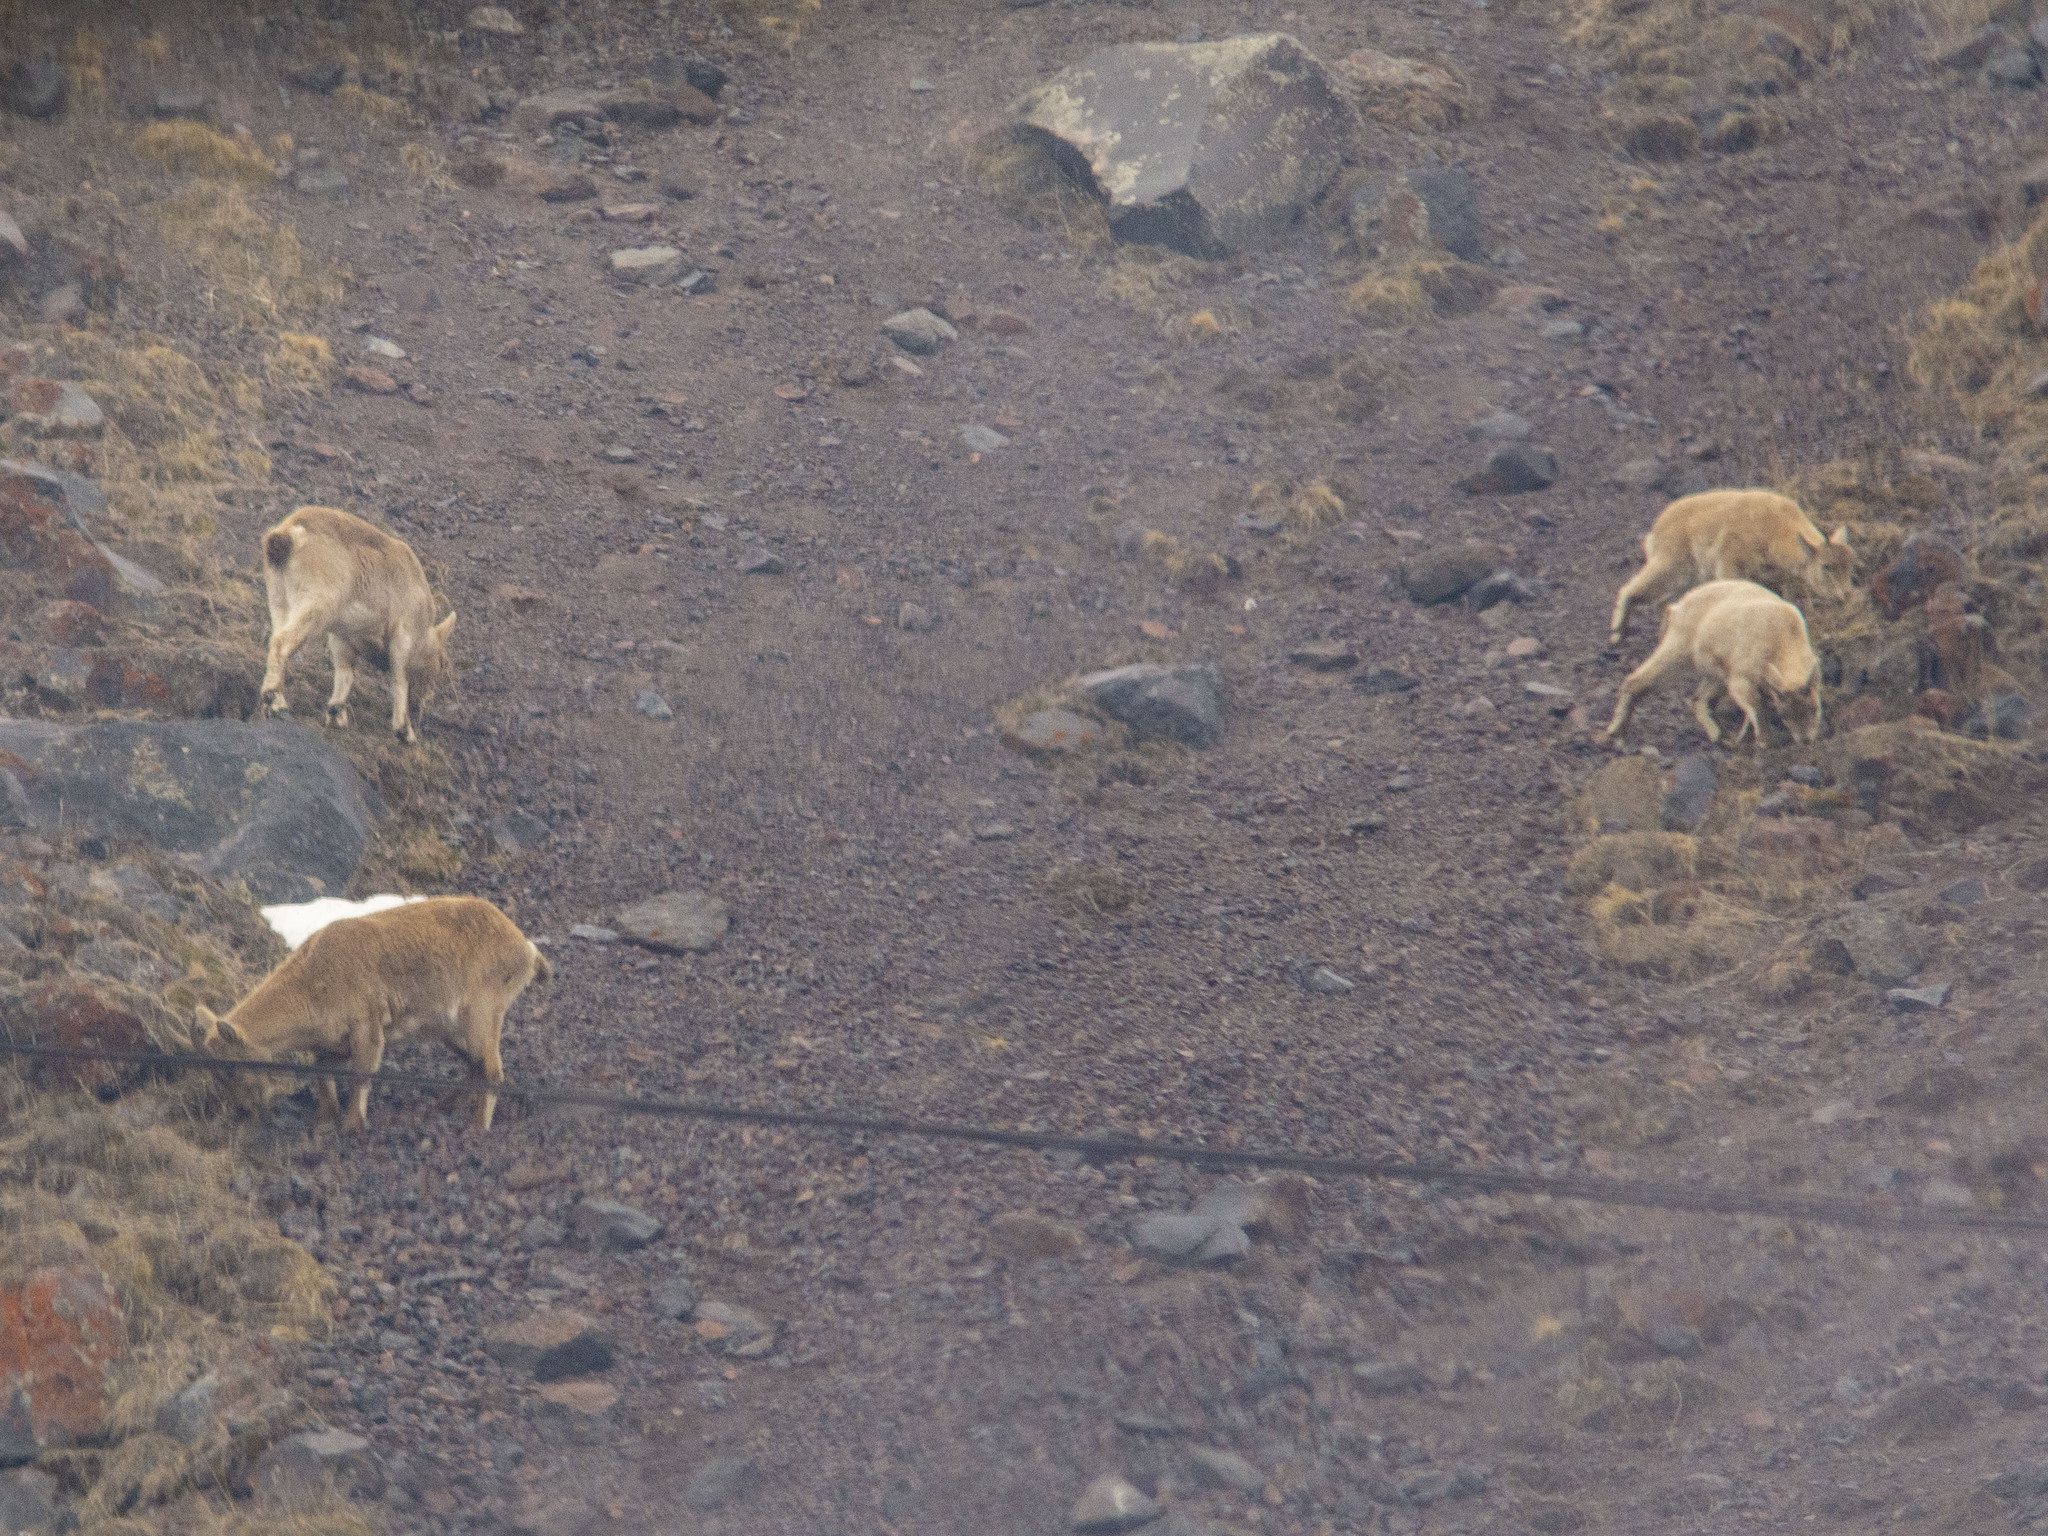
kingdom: Animalia
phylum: Chordata
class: Mammalia
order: Artiodactyla
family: Bovidae
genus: Capra
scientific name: Capra caucasica
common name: Tur
